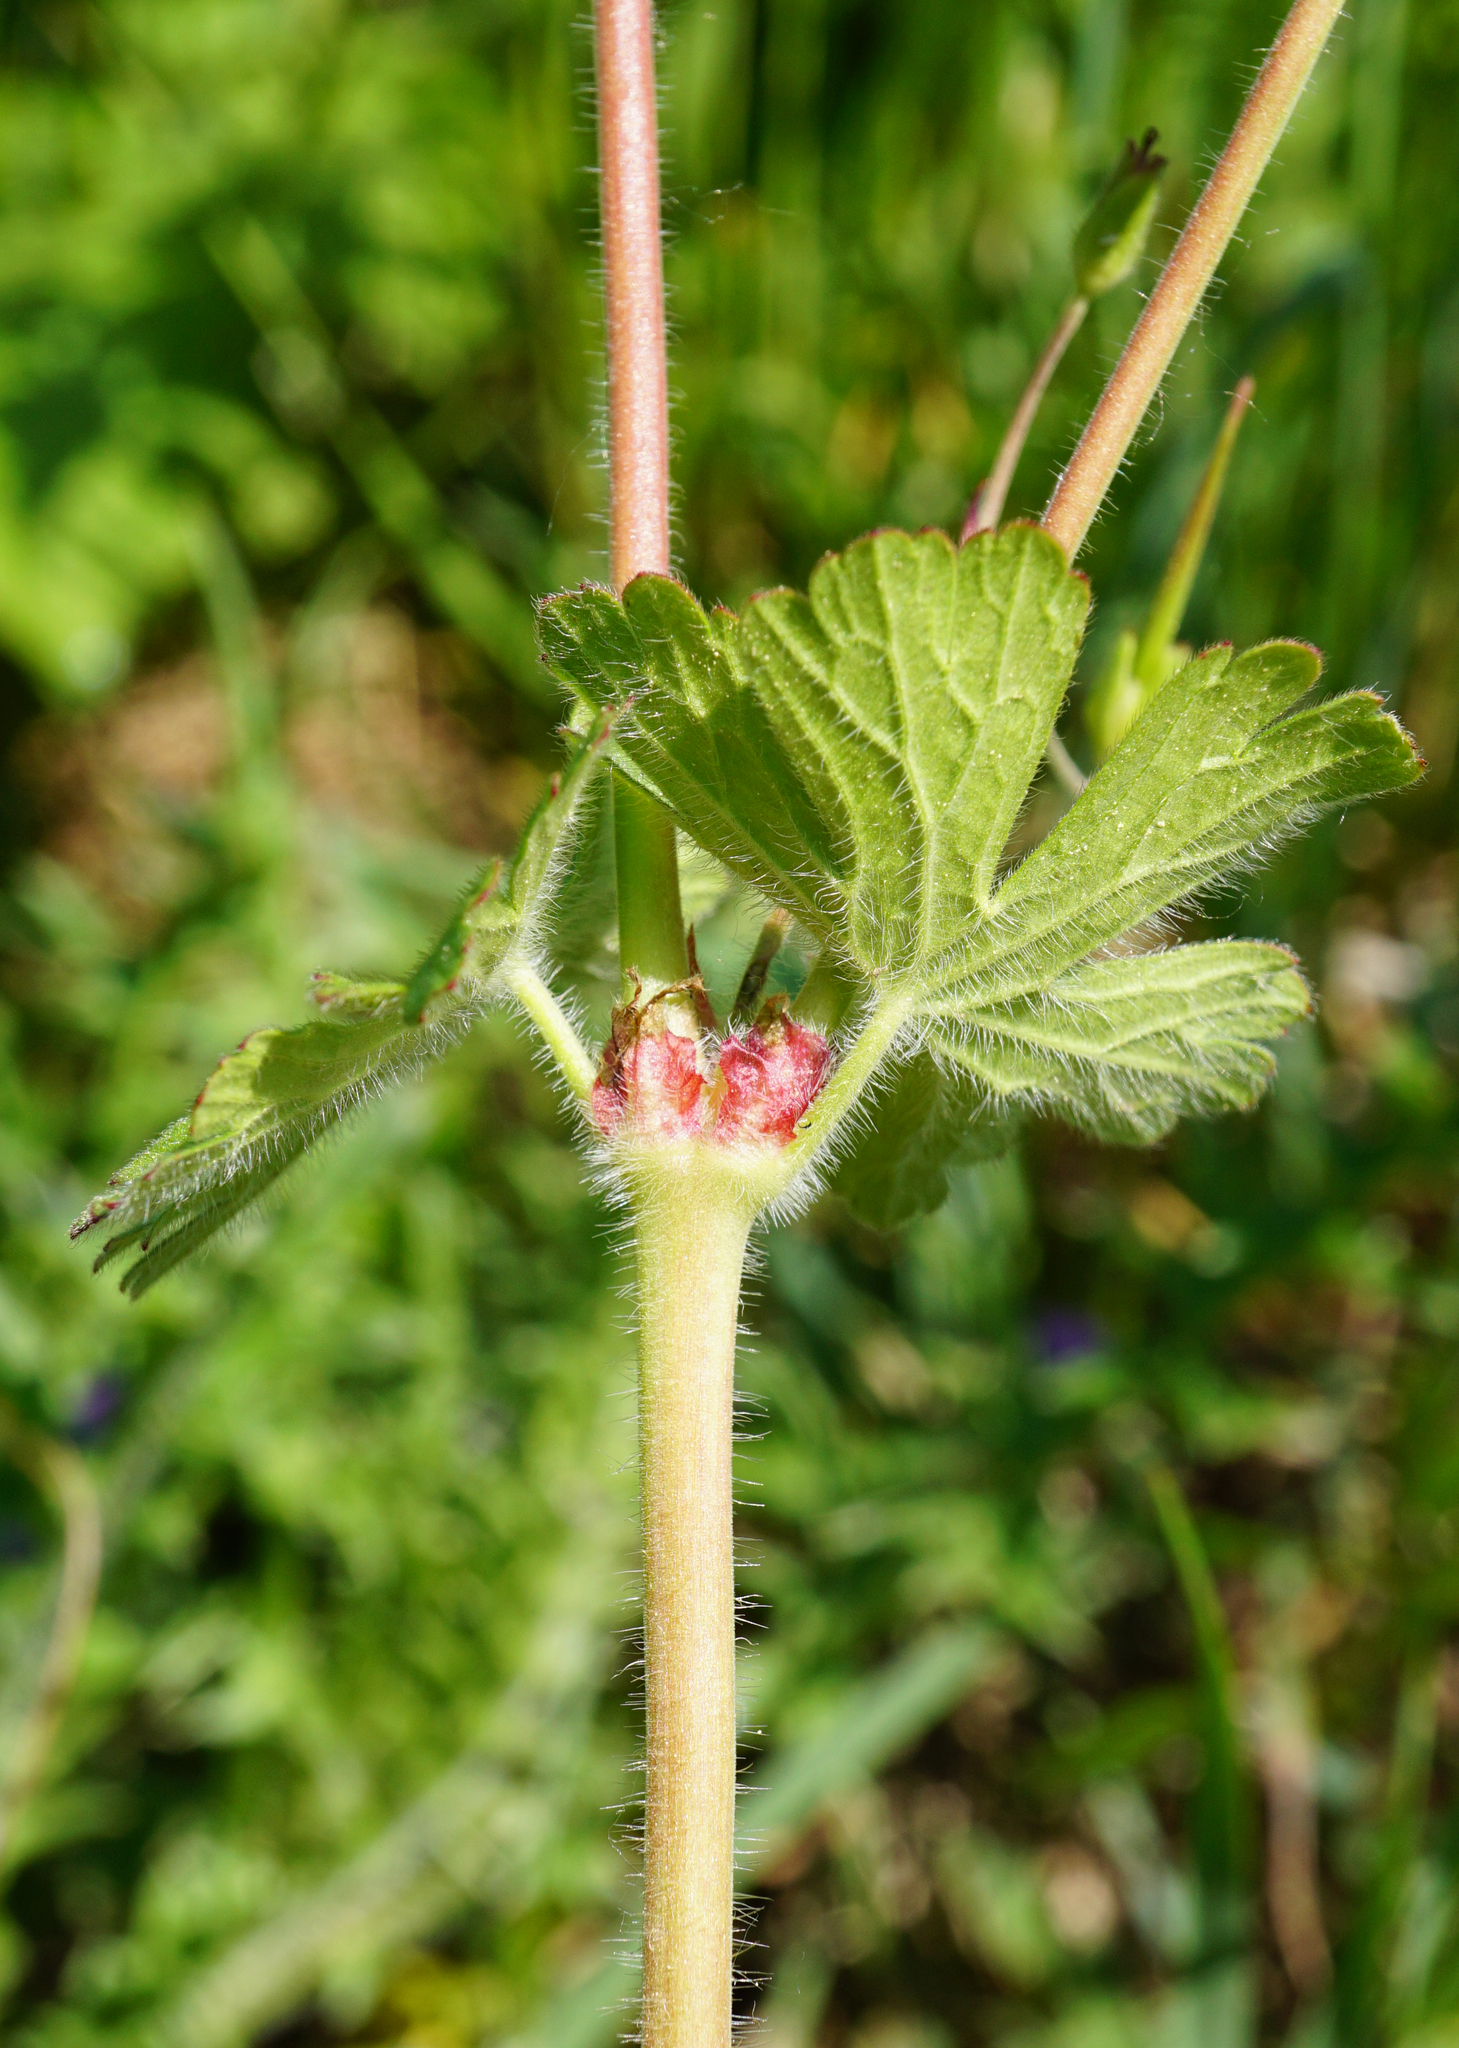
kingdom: Plantae
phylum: Tracheophyta
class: Magnoliopsida
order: Geraniales
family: Geraniaceae
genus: Geranium
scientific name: Geranium pyrenaicum
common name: Hedgerow crane's-bill
